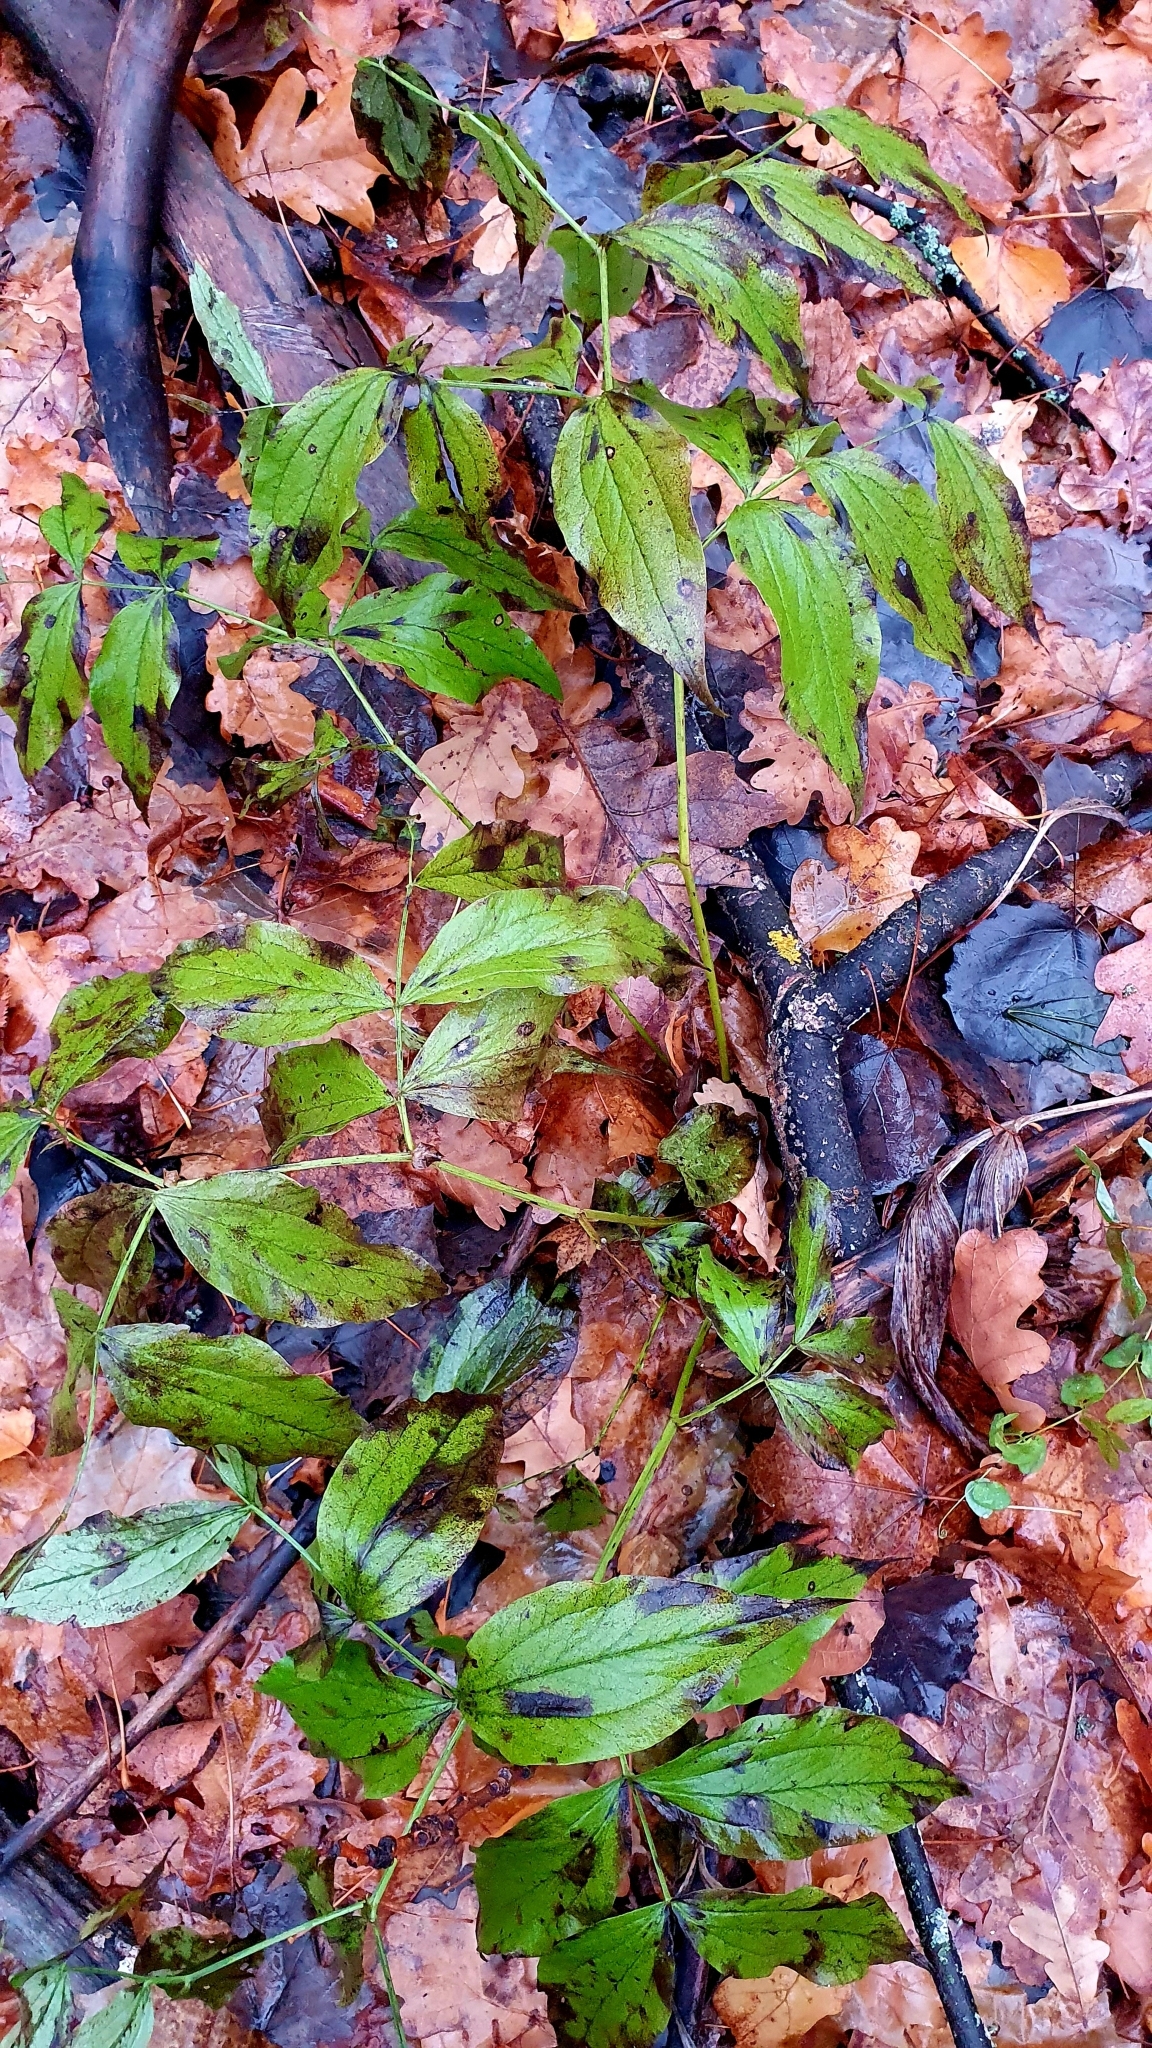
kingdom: Plantae
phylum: Tracheophyta
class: Magnoliopsida
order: Fabales
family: Fabaceae
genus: Lathyrus
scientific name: Lathyrus vernus
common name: Spring pea
